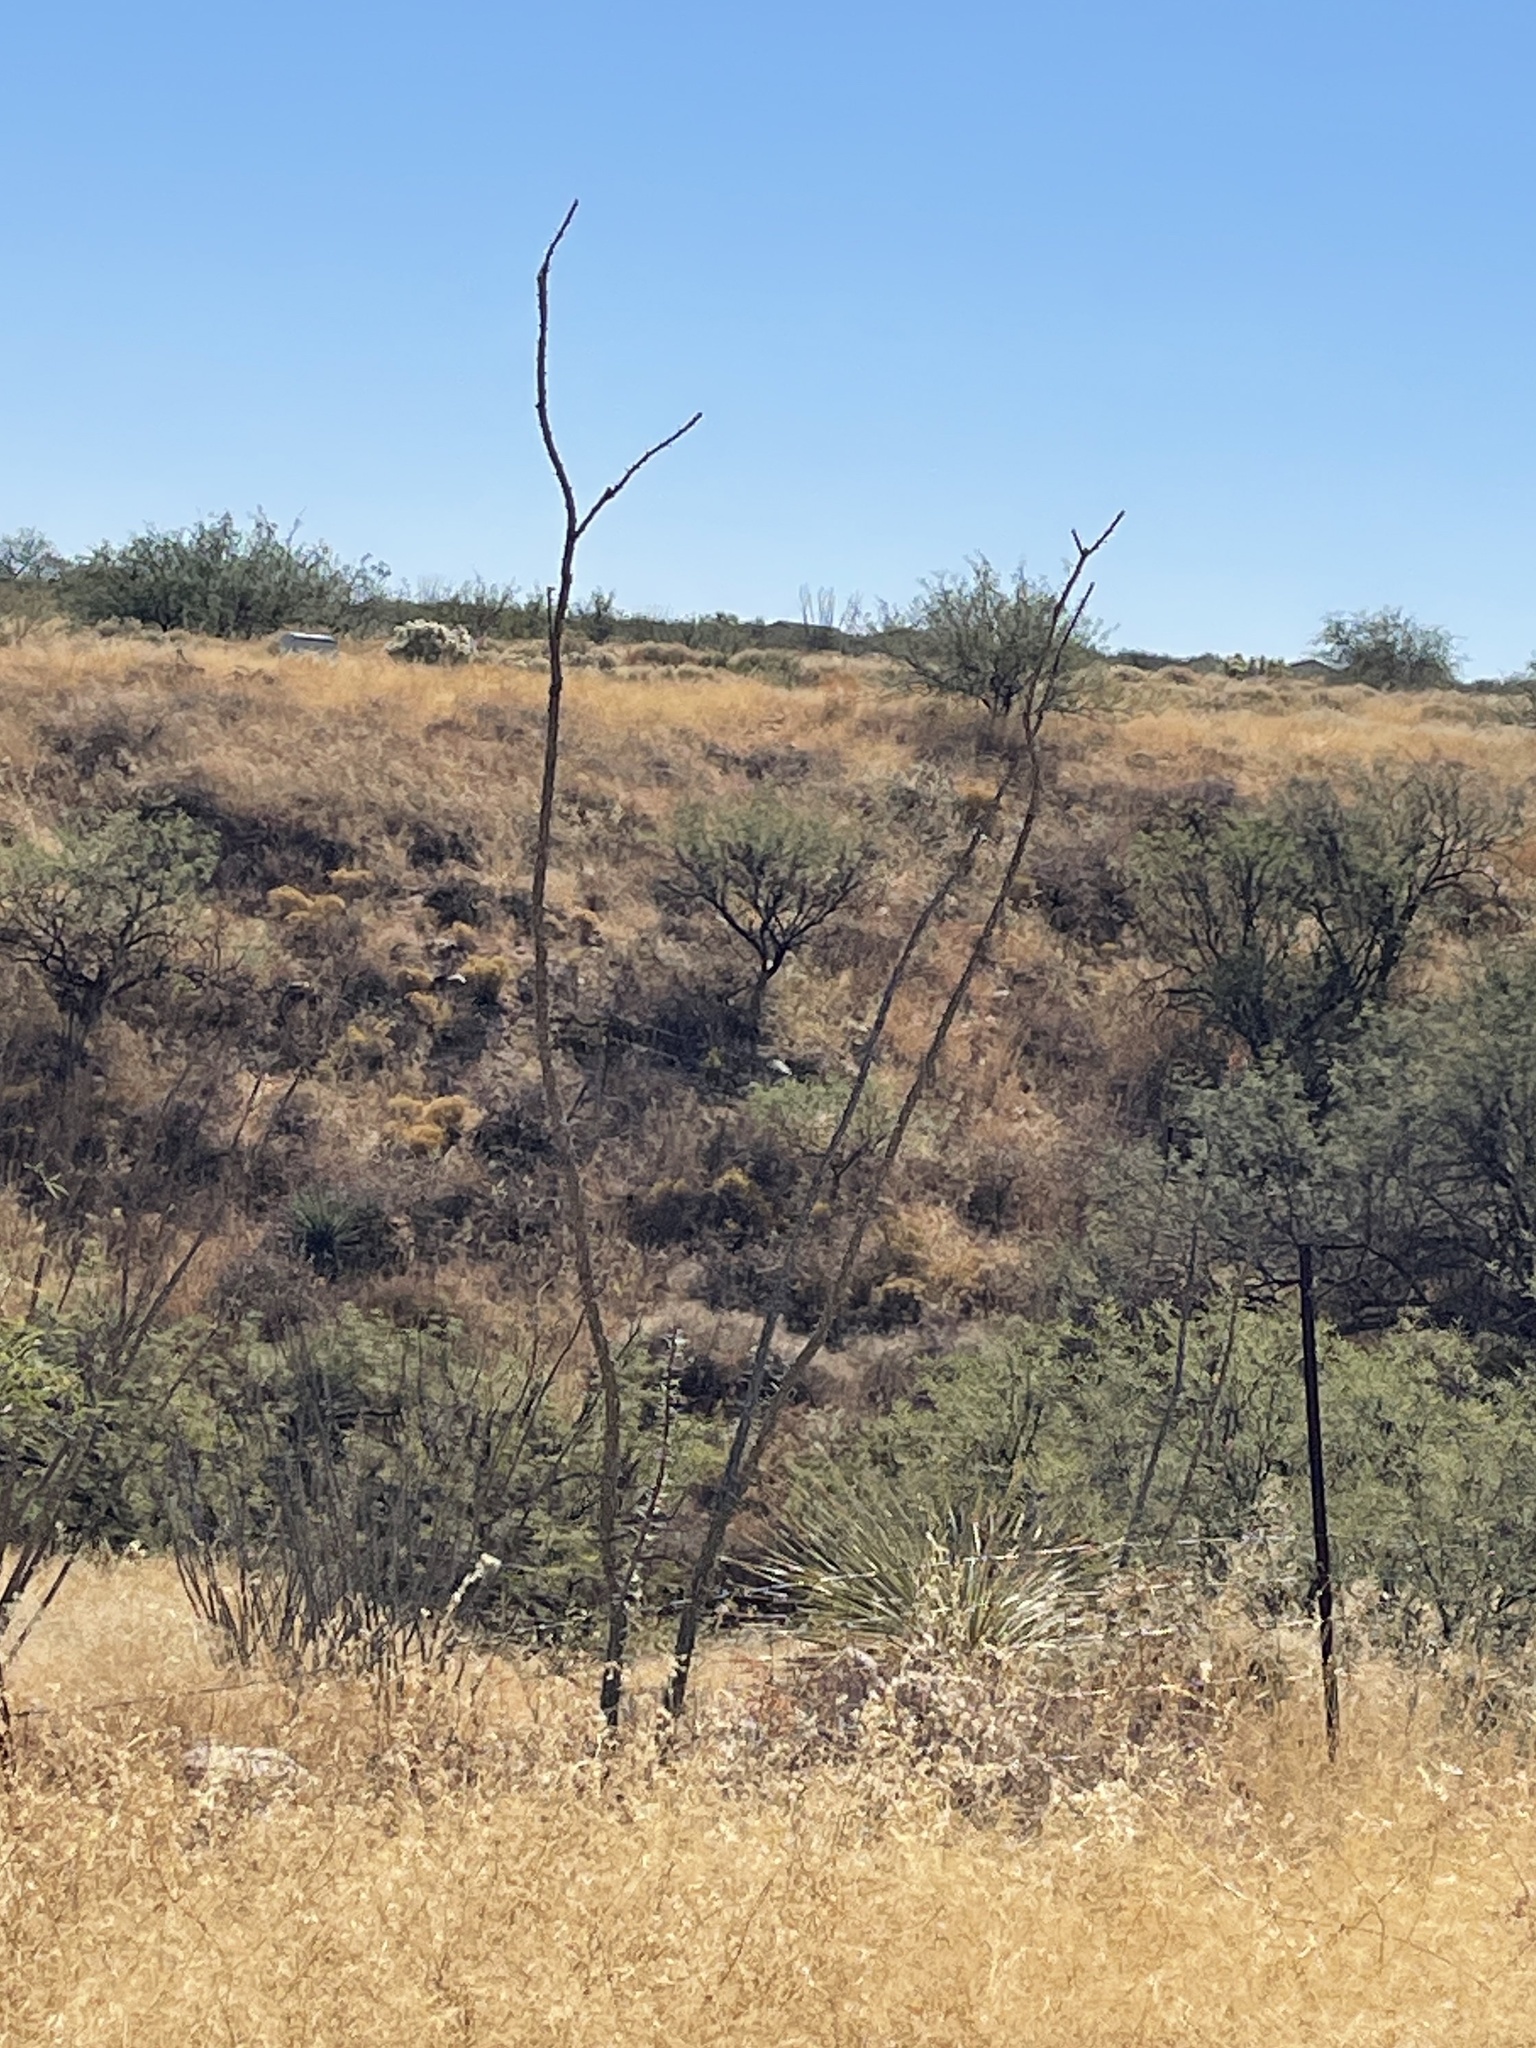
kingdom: Plantae
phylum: Tracheophyta
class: Magnoliopsida
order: Ericales
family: Fouquieriaceae
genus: Fouquieria
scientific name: Fouquieria splendens
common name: Vine-cactus
